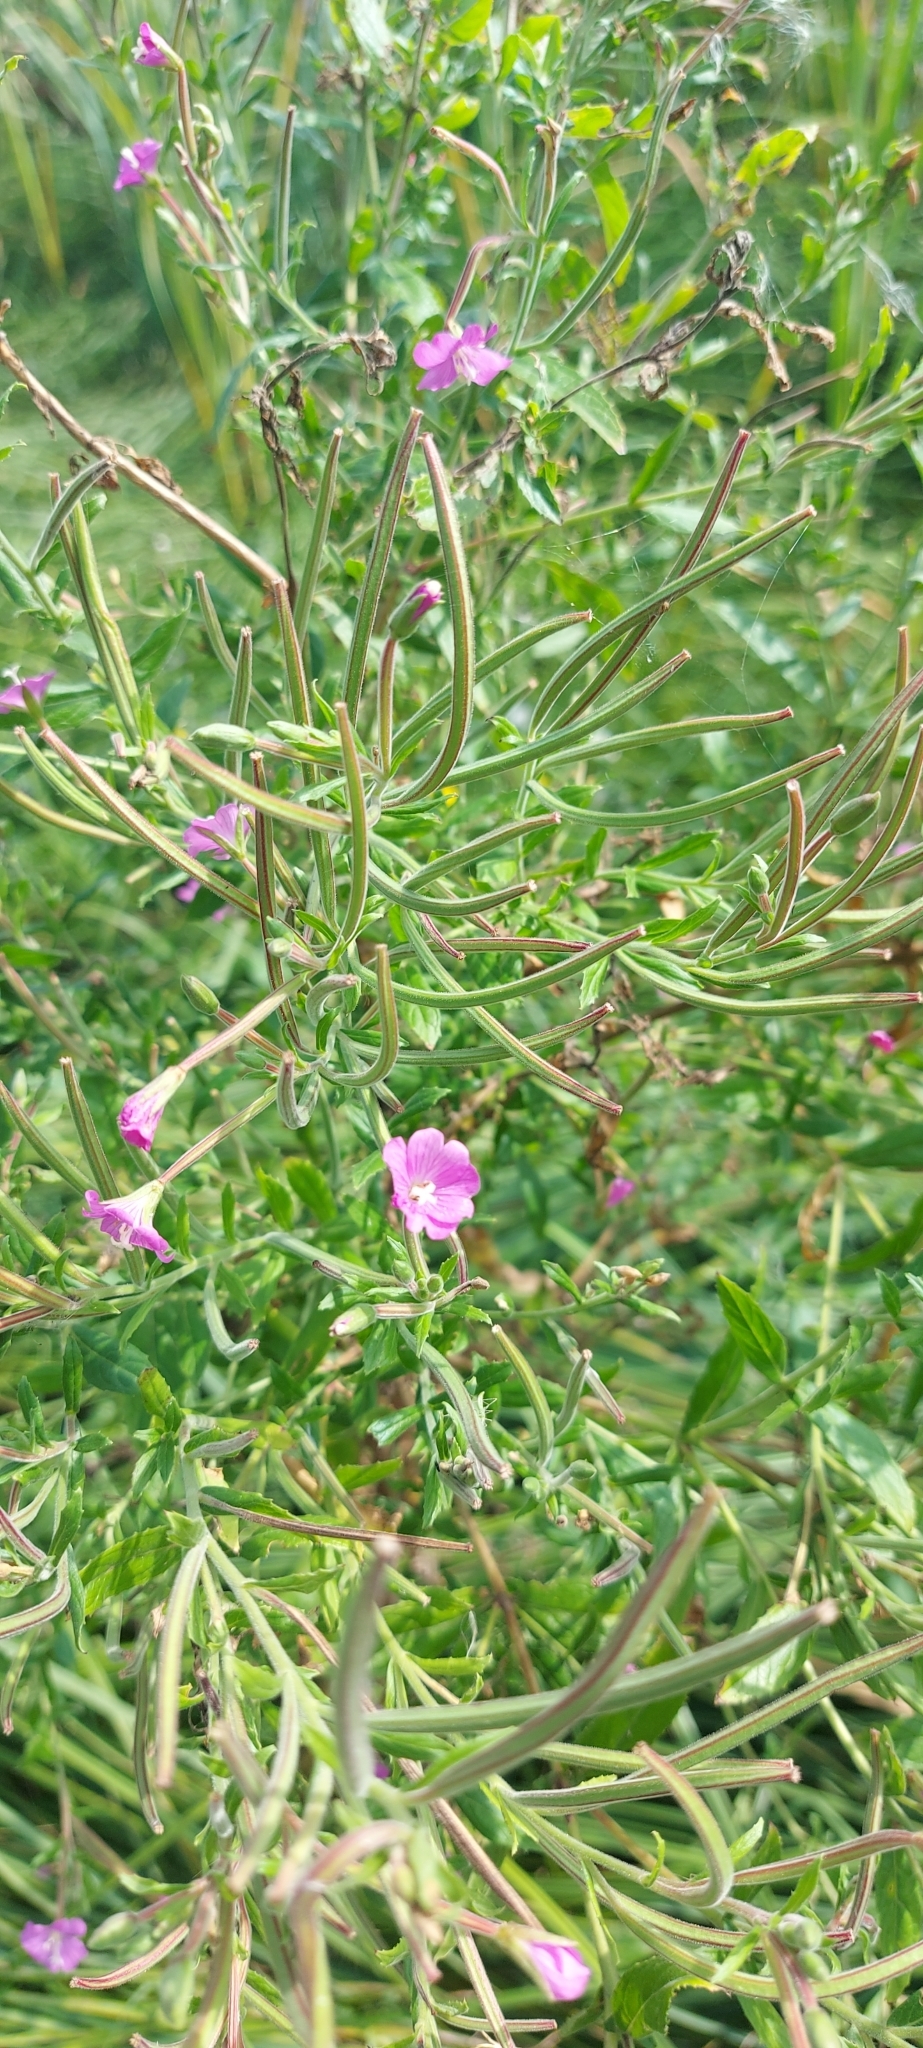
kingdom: Plantae
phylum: Tracheophyta
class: Magnoliopsida
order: Myrtales
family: Onagraceae
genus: Epilobium
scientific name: Epilobium hirsutum
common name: Great willowherb
